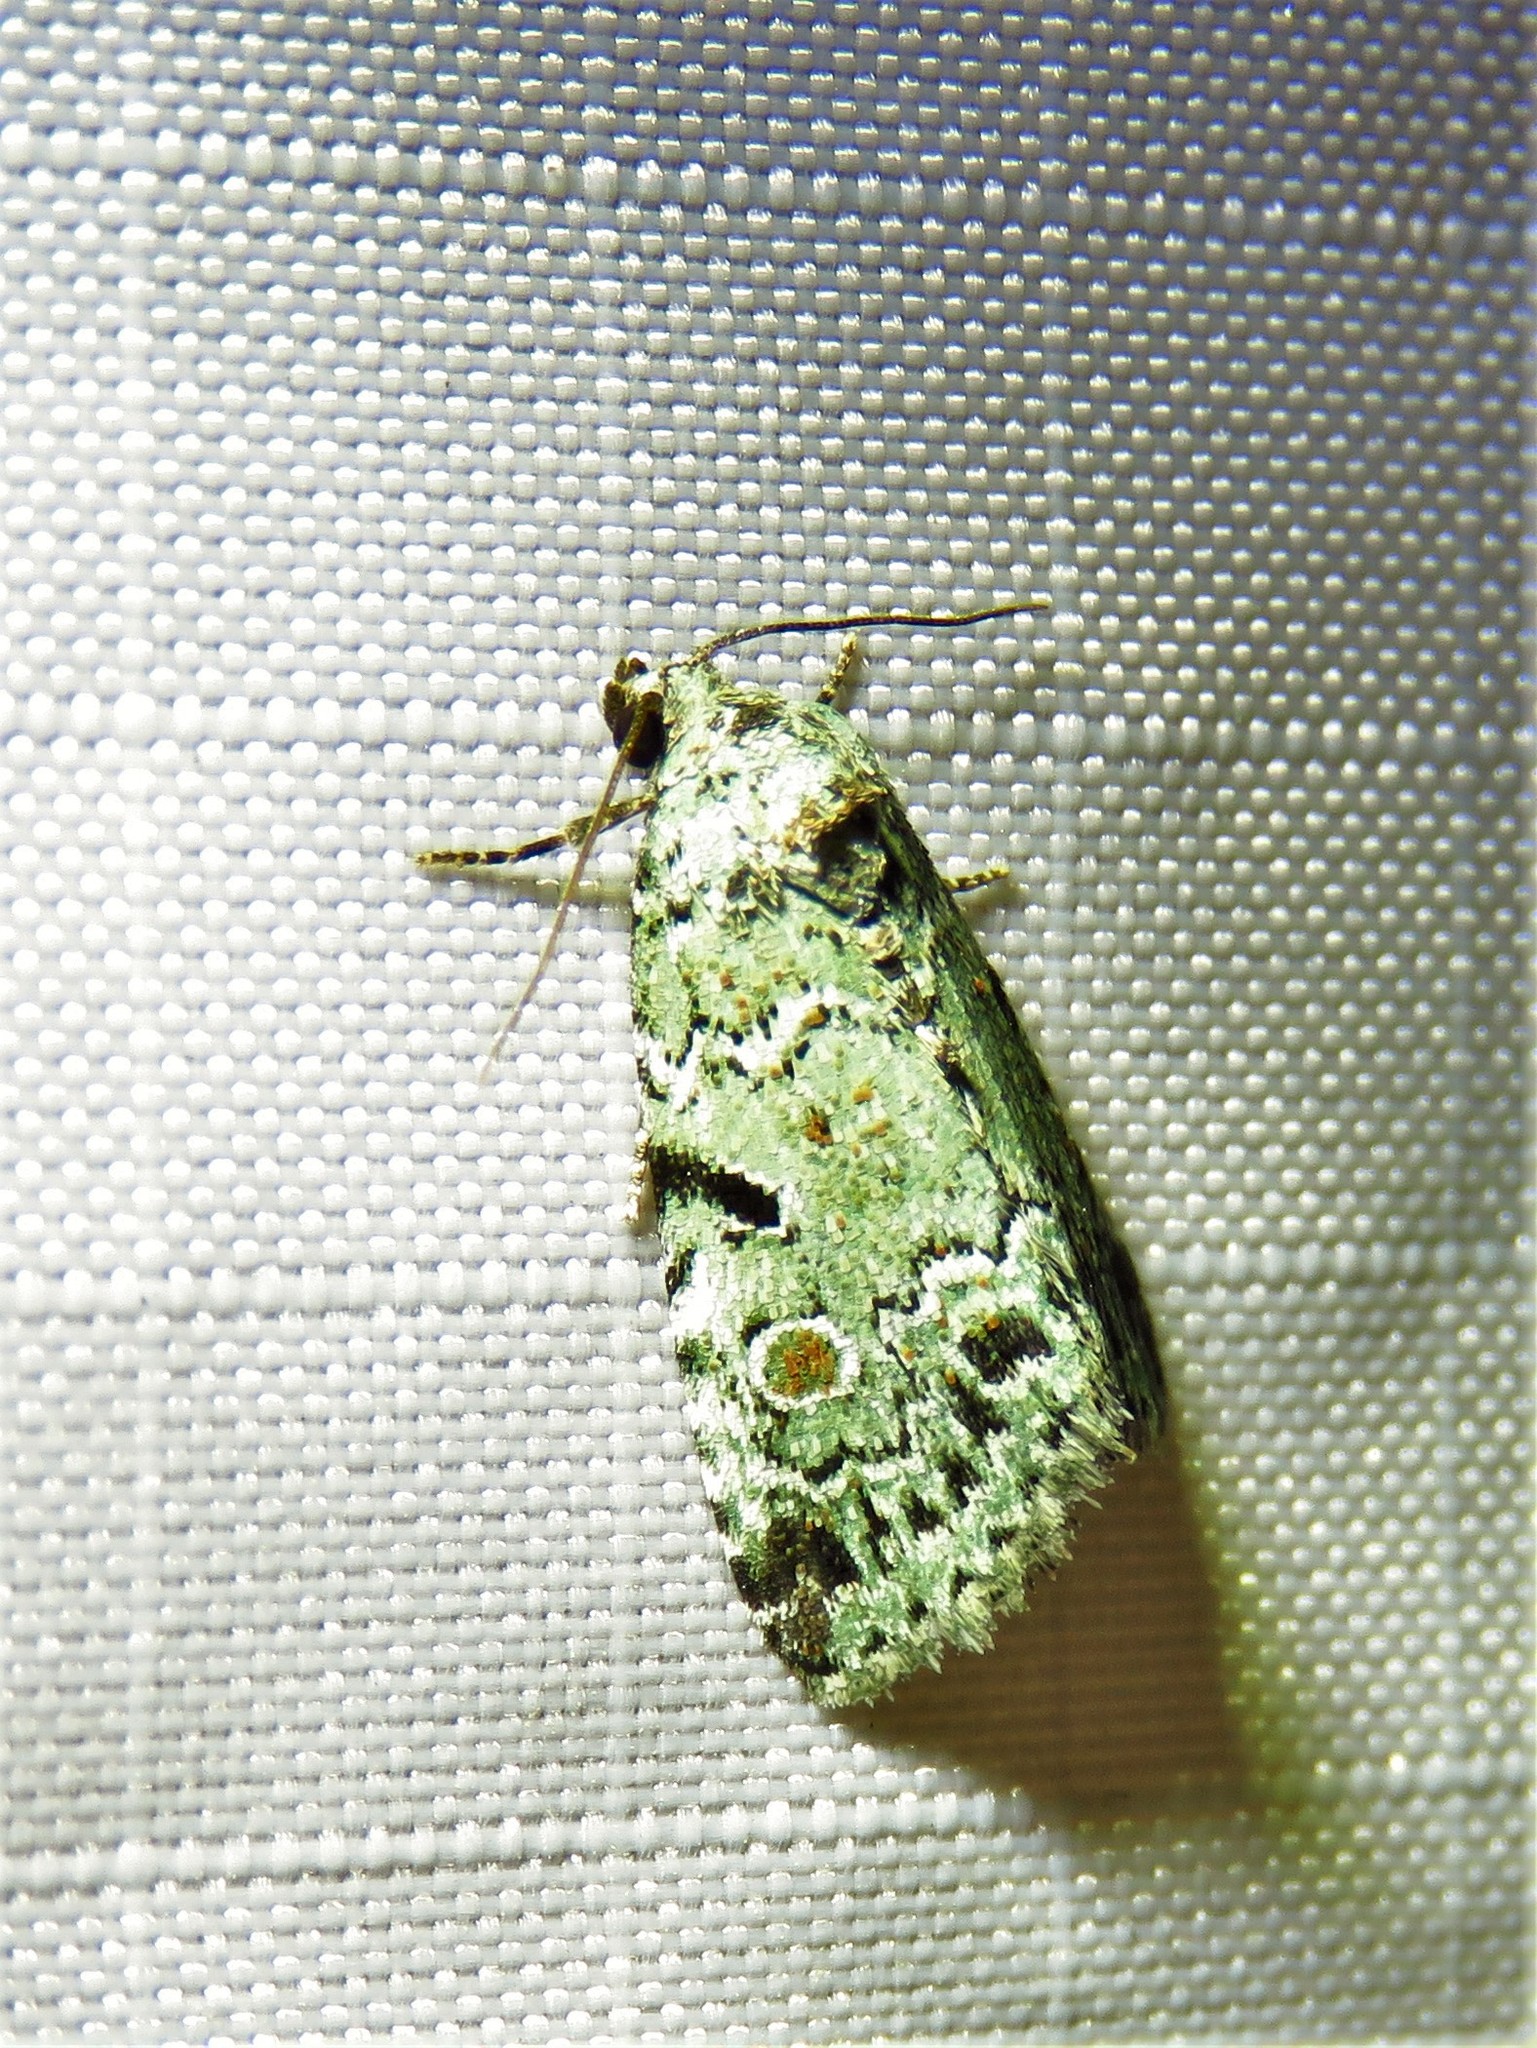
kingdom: Animalia
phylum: Arthropoda
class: Insecta
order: Lepidoptera
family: Noctuidae
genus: Maliattha
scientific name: Maliattha concinnimacula
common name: Red-spotted glyph
